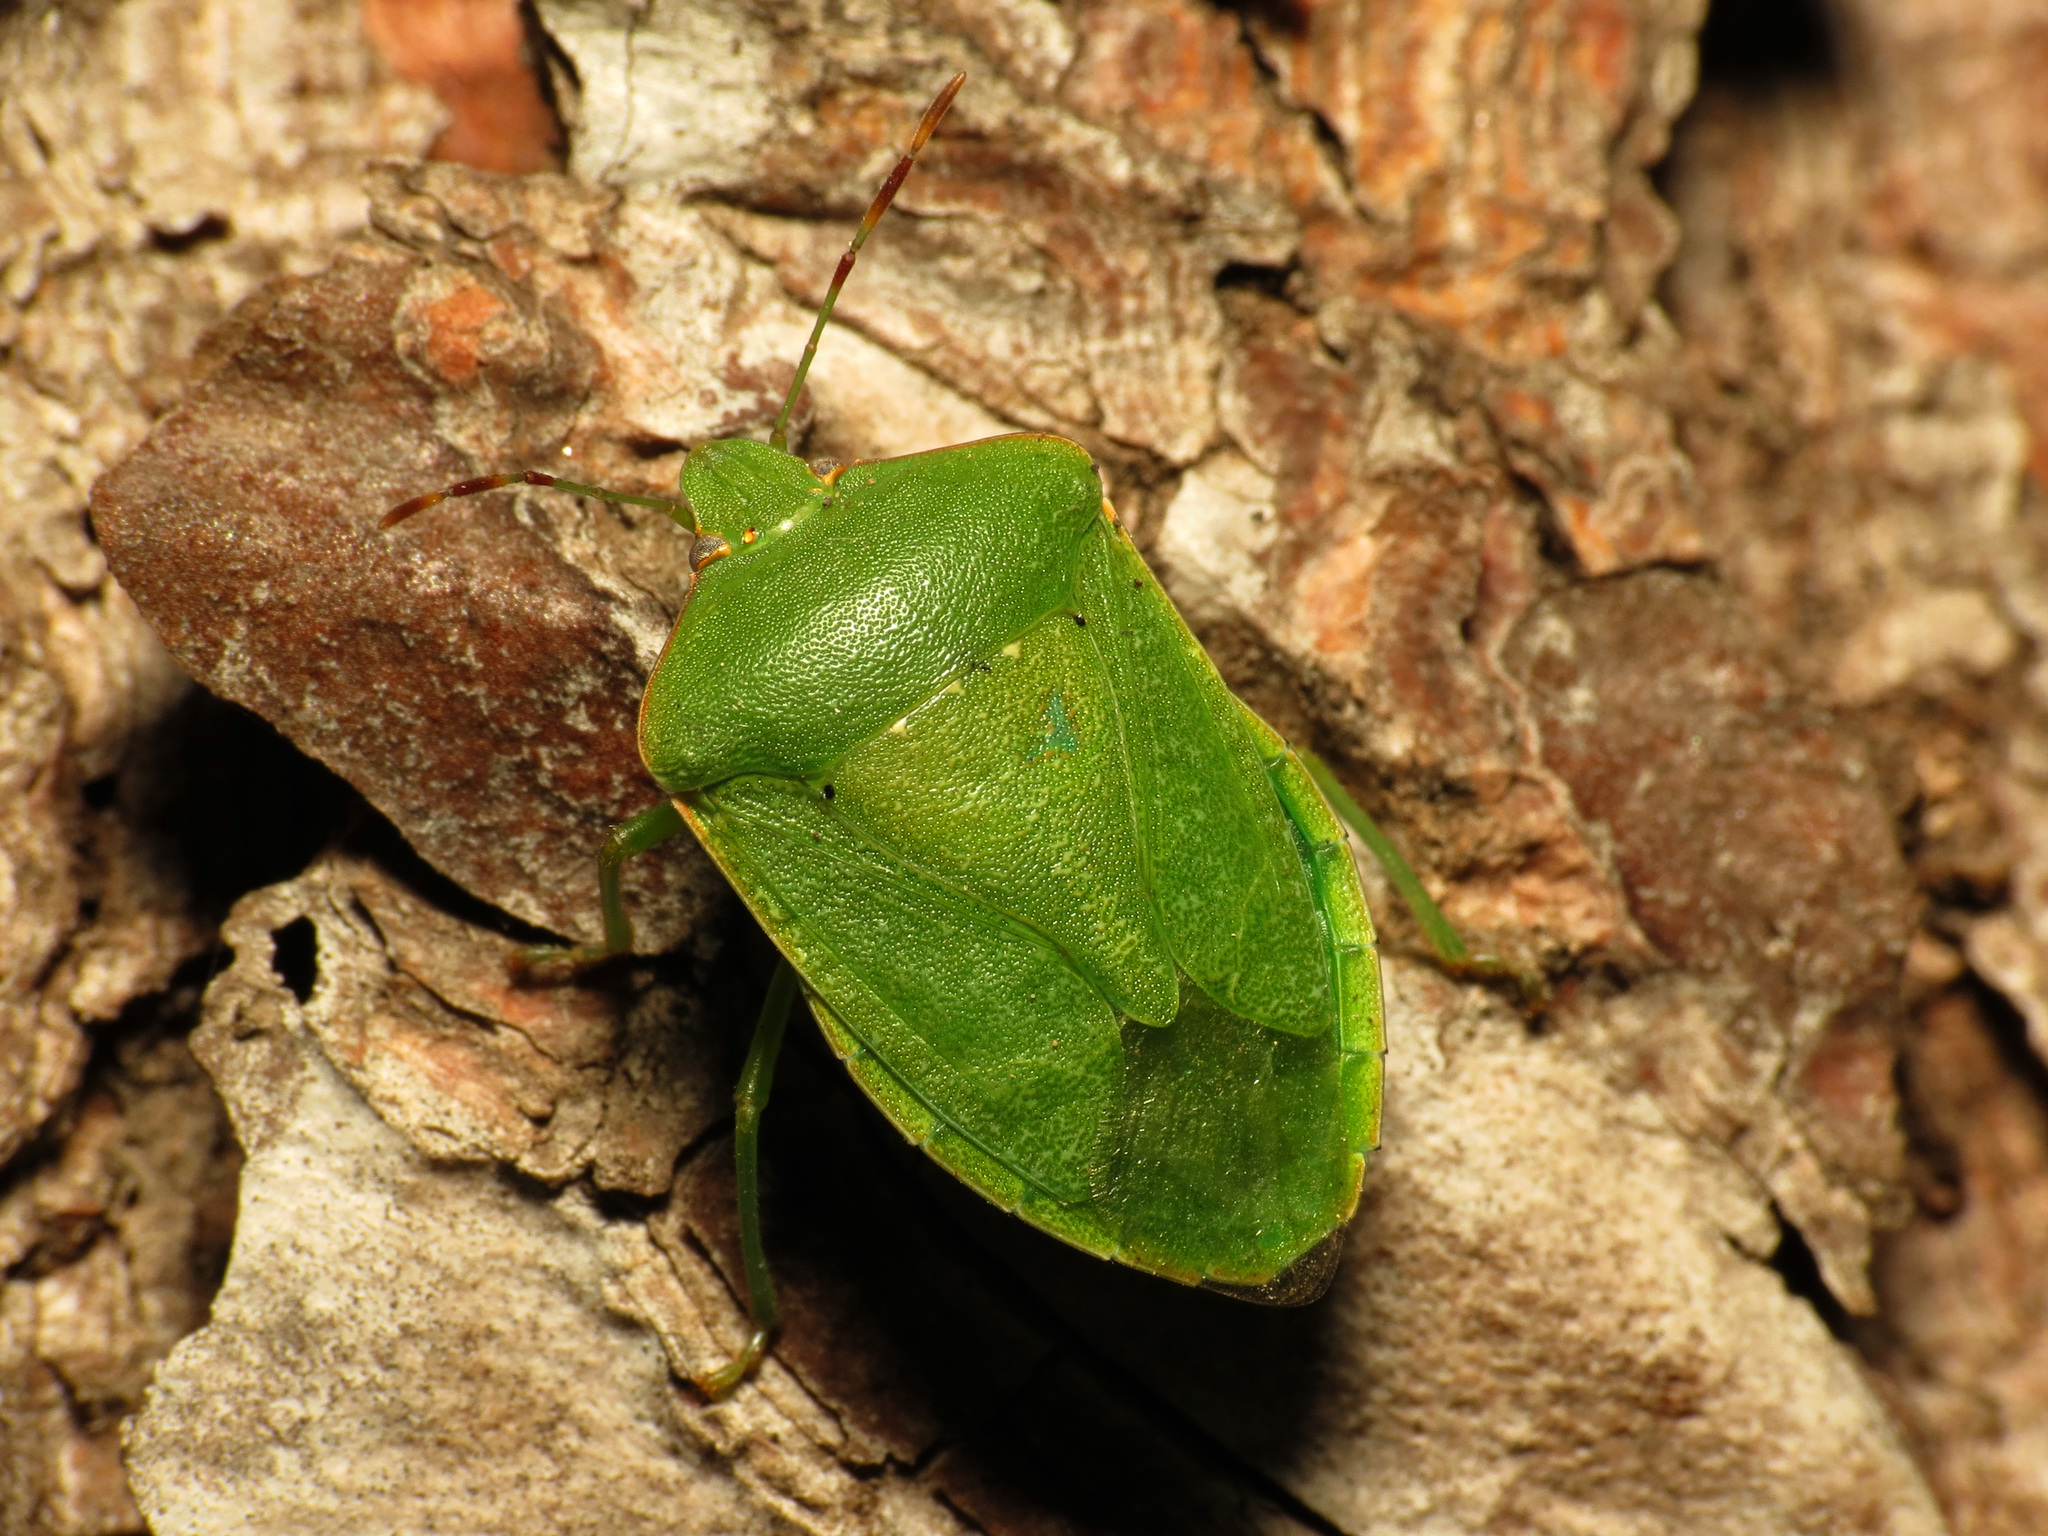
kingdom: Animalia
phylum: Arthropoda
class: Insecta
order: Hemiptera
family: Pentatomidae
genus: Nezara
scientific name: Nezara viridula
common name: Southern green stink bug
